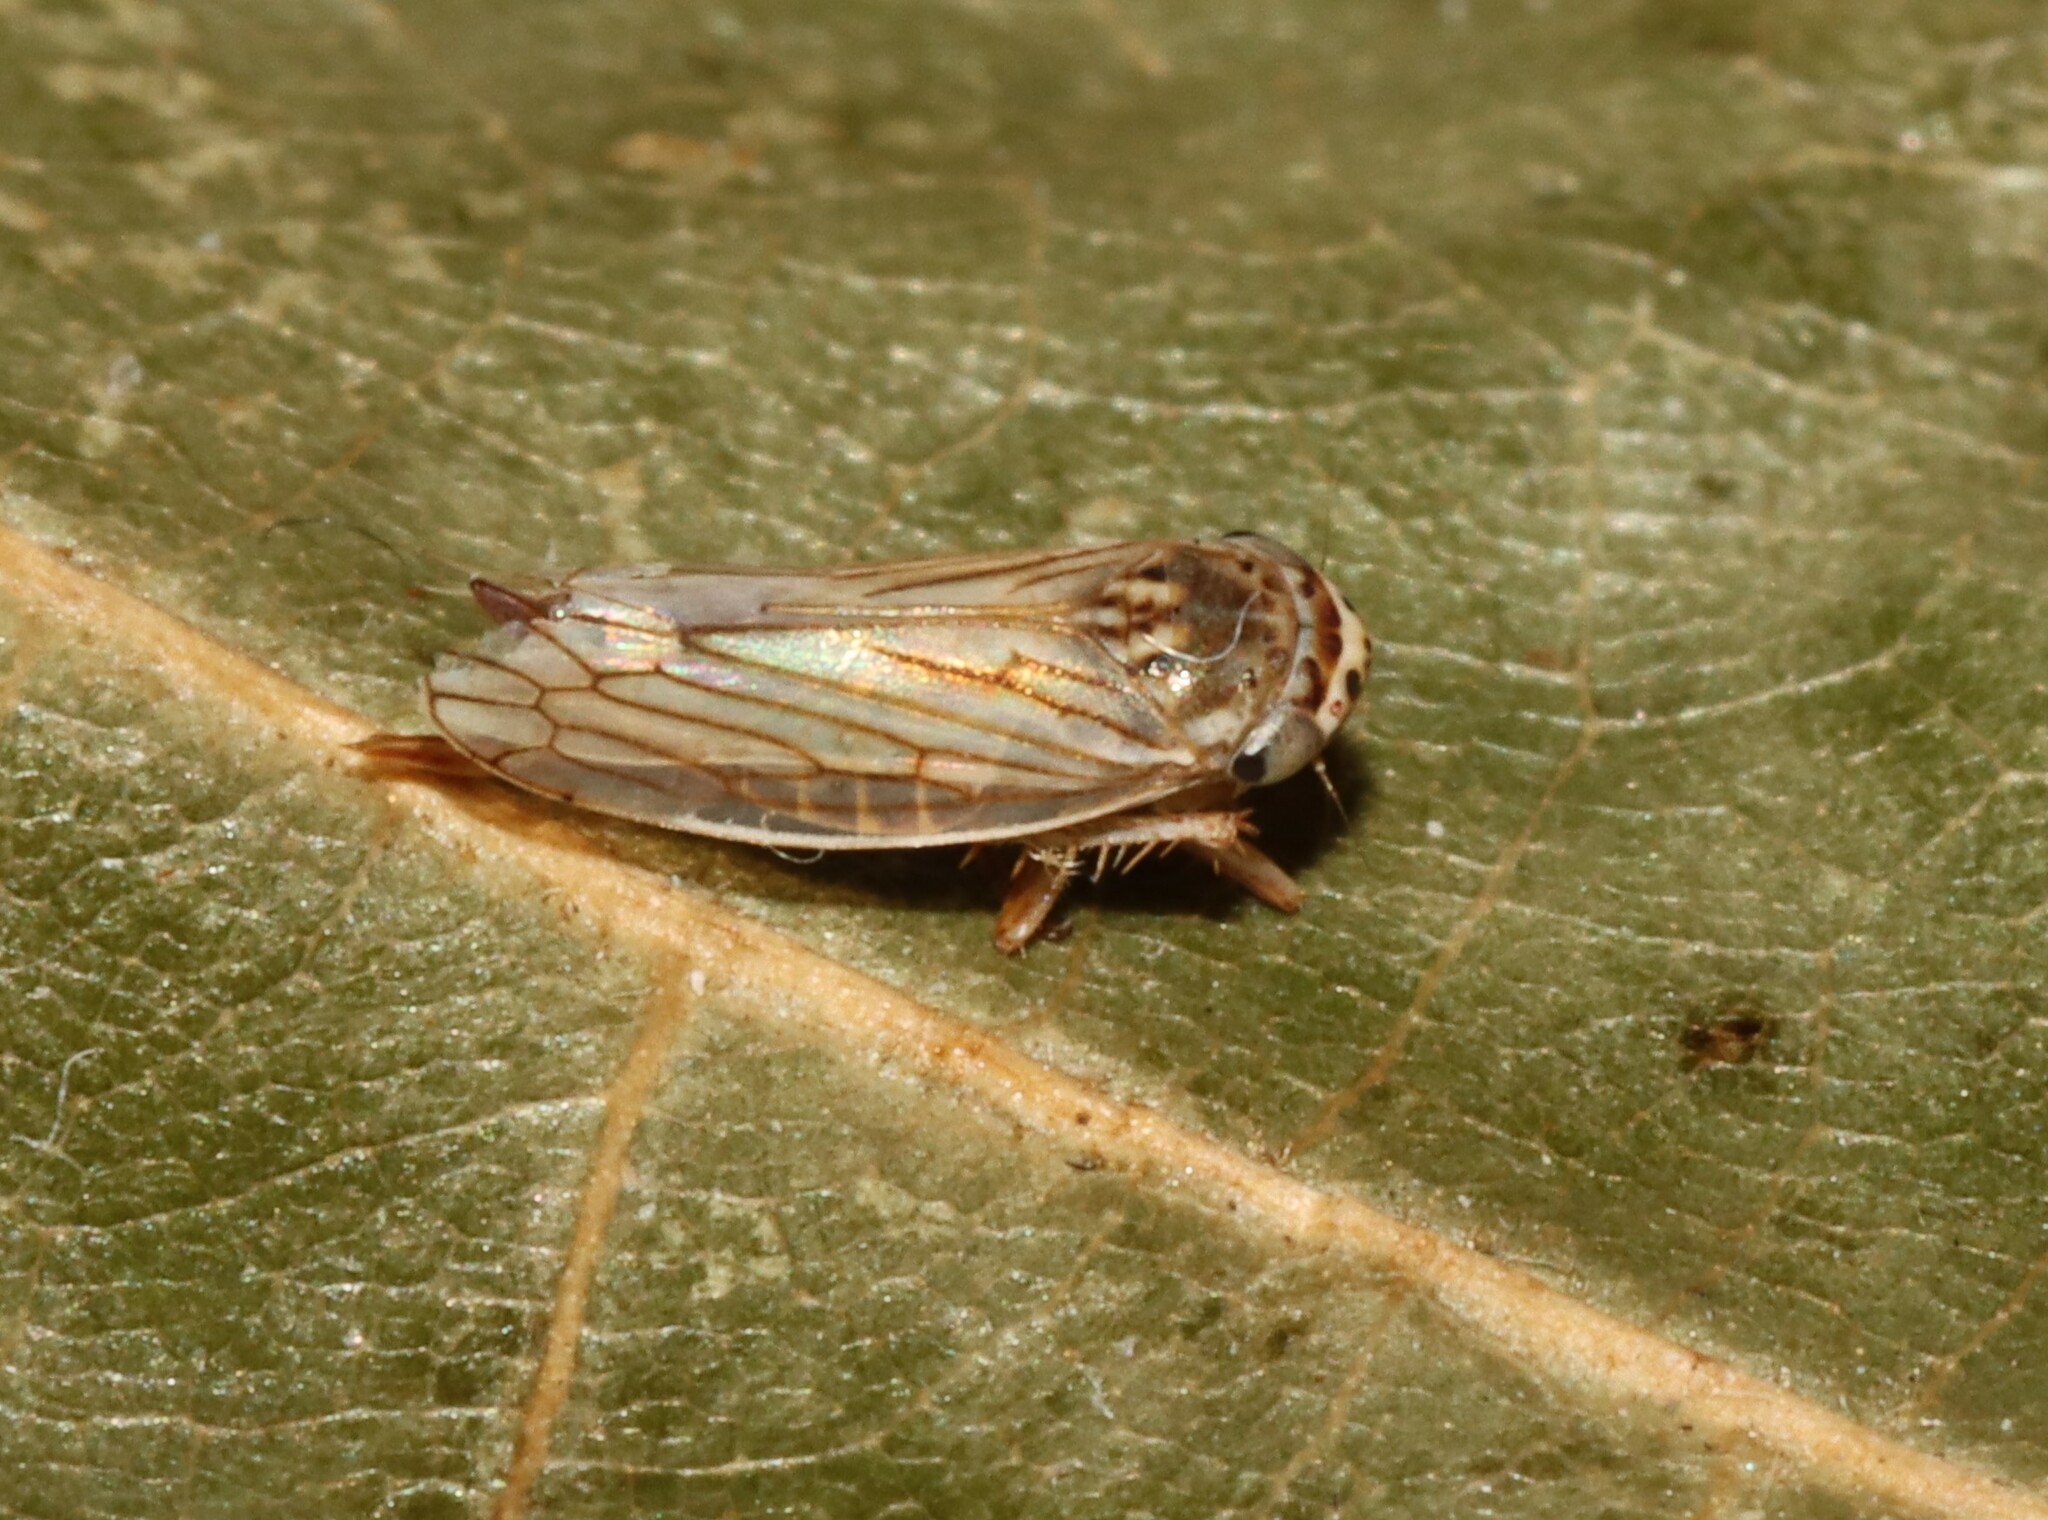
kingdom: Animalia
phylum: Arthropoda
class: Insecta
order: Hemiptera
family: Cicadellidae
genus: Exitianus
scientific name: Exitianus exitiosus
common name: Gray lawn leafhopper
